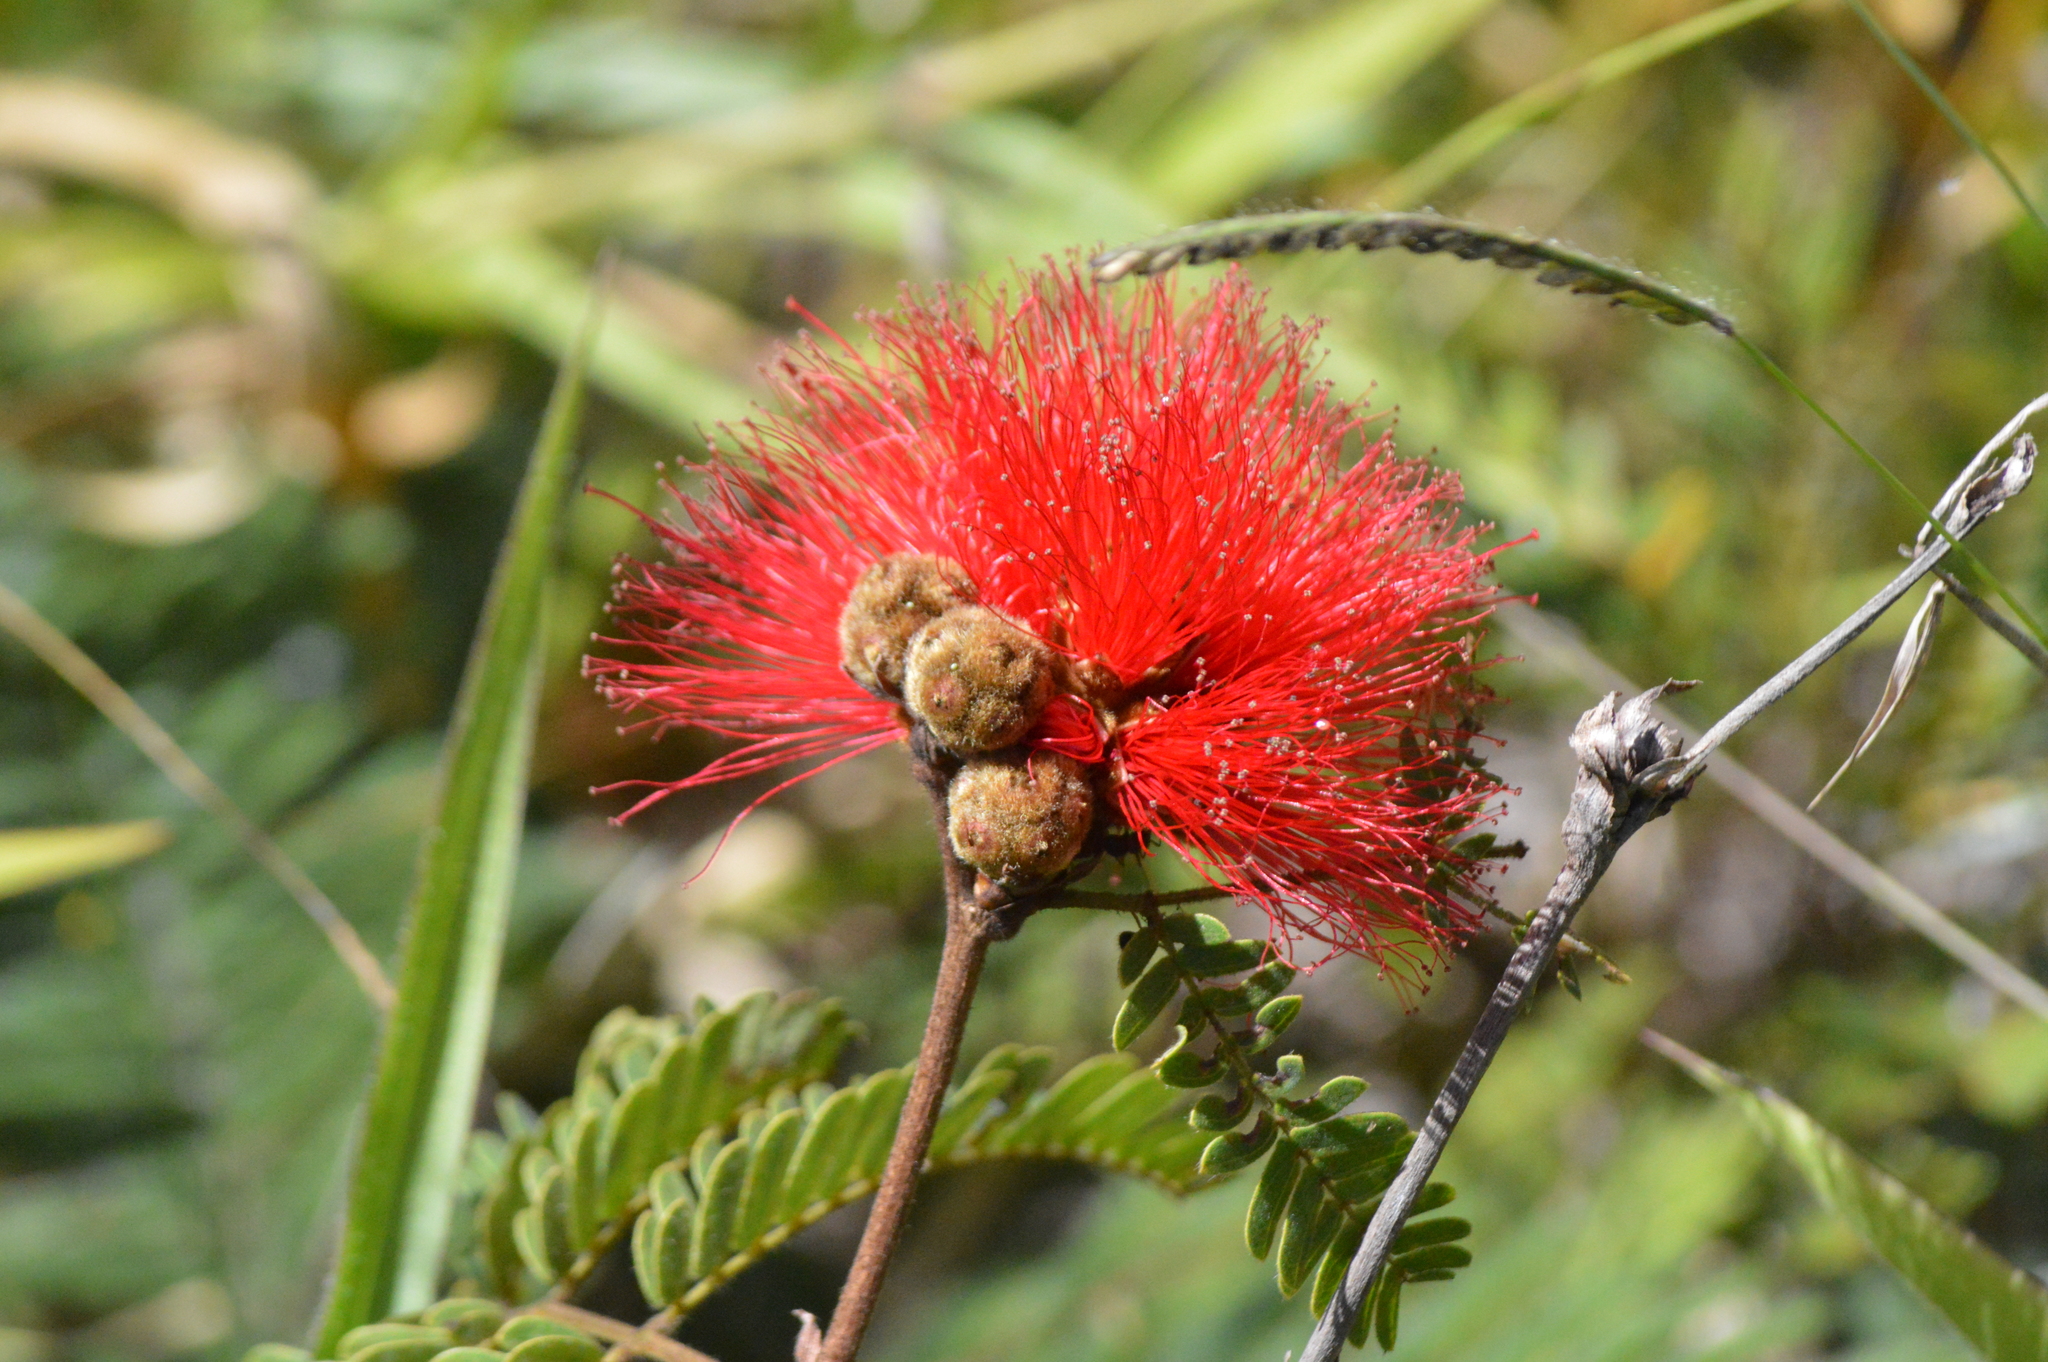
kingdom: Plantae
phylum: Tracheophyta
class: Magnoliopsida
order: Fabales
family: Fabaceae
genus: Calliandra
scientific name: Calliandra dysantha
